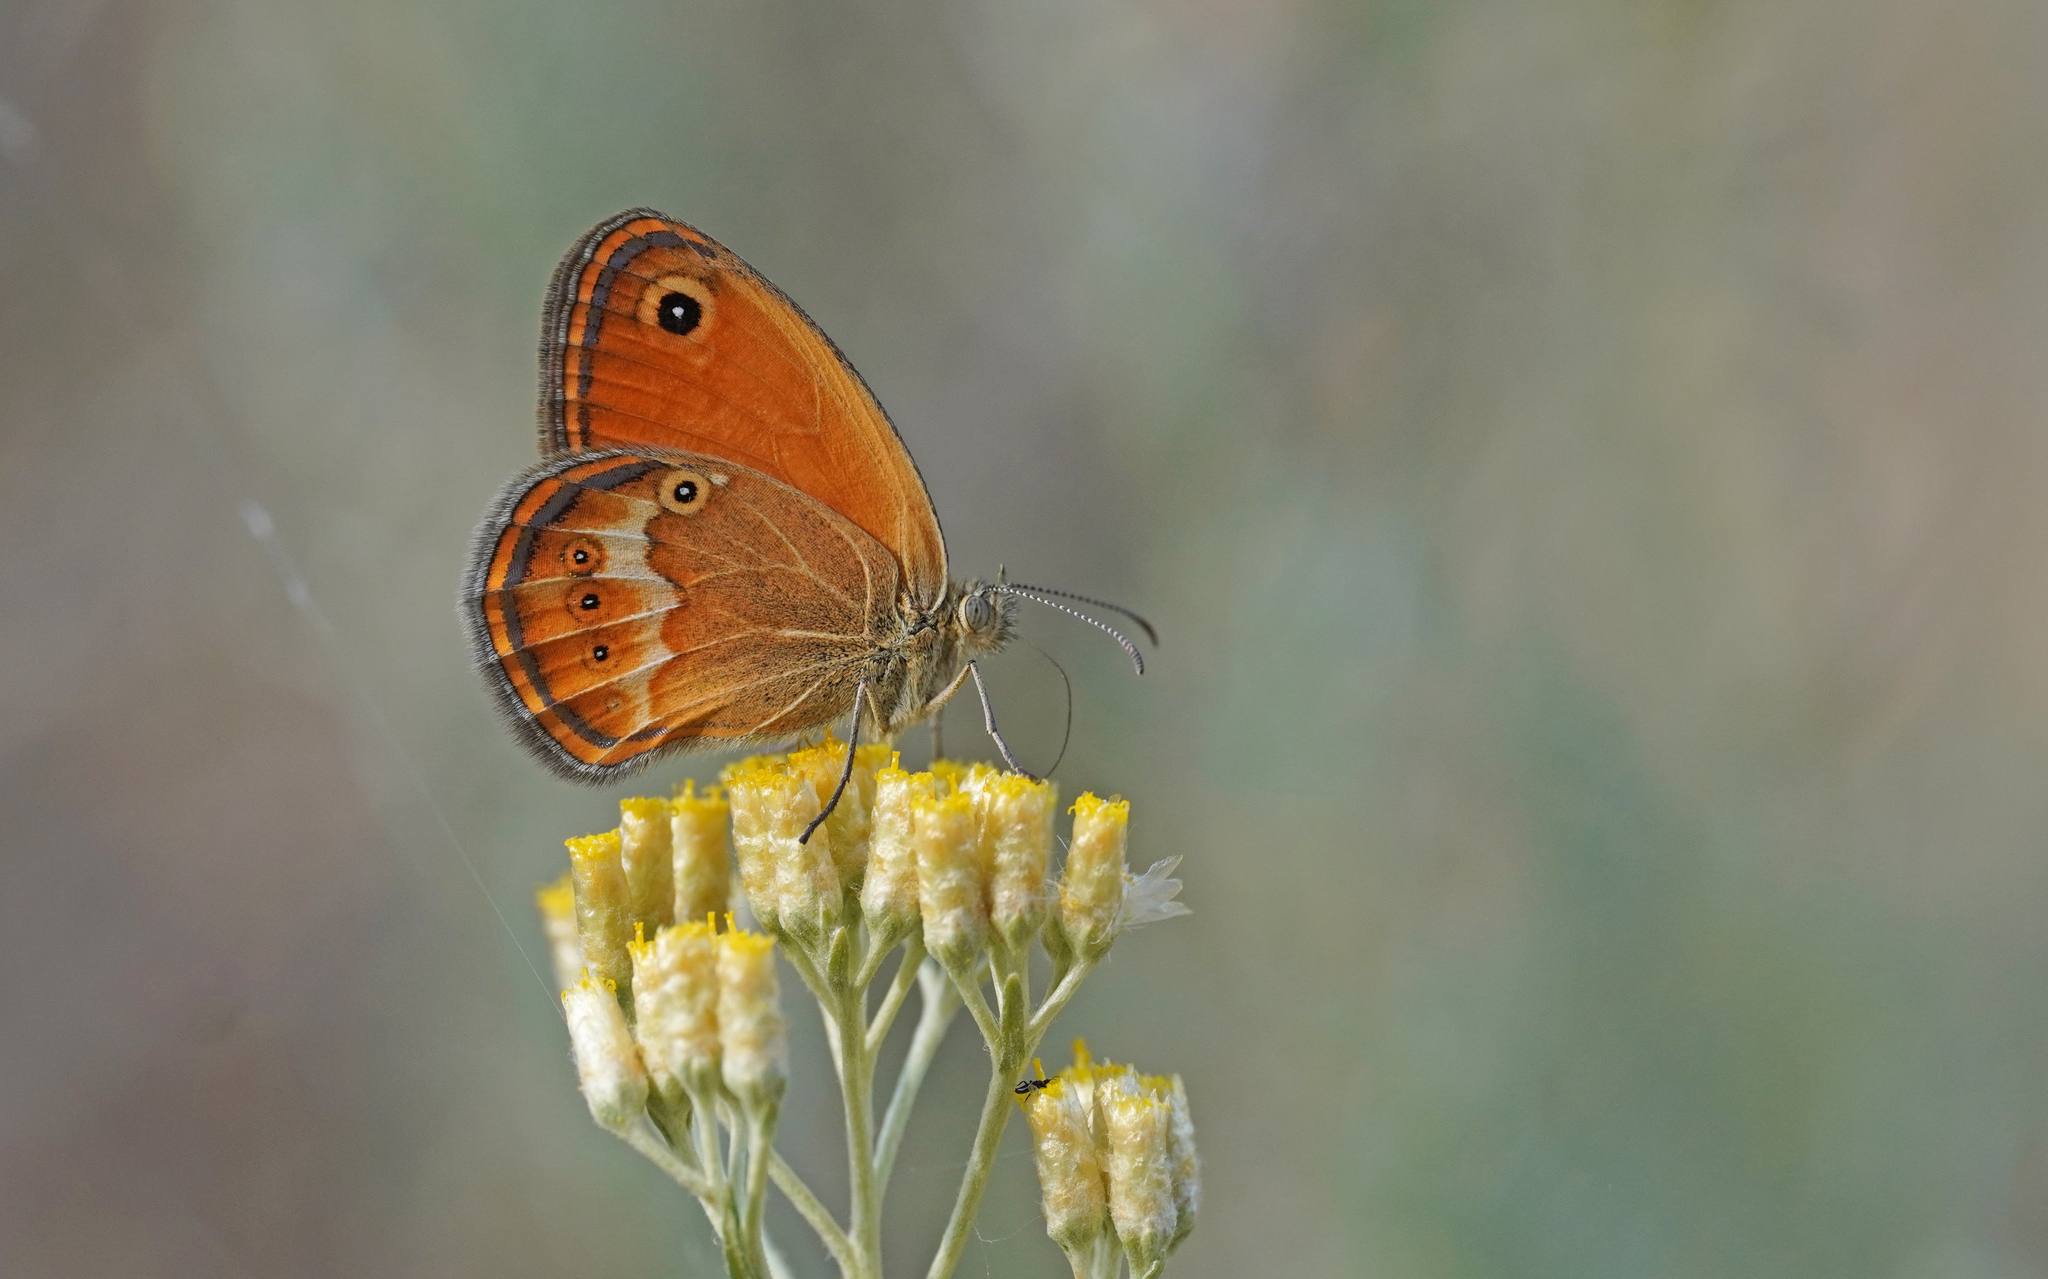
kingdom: Animalia
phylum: Arthropoda
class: Insecta
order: Lepidoptera
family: Nymphalidae
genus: Coenonympha
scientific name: Coenonympha corinna
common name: Corsican heath
